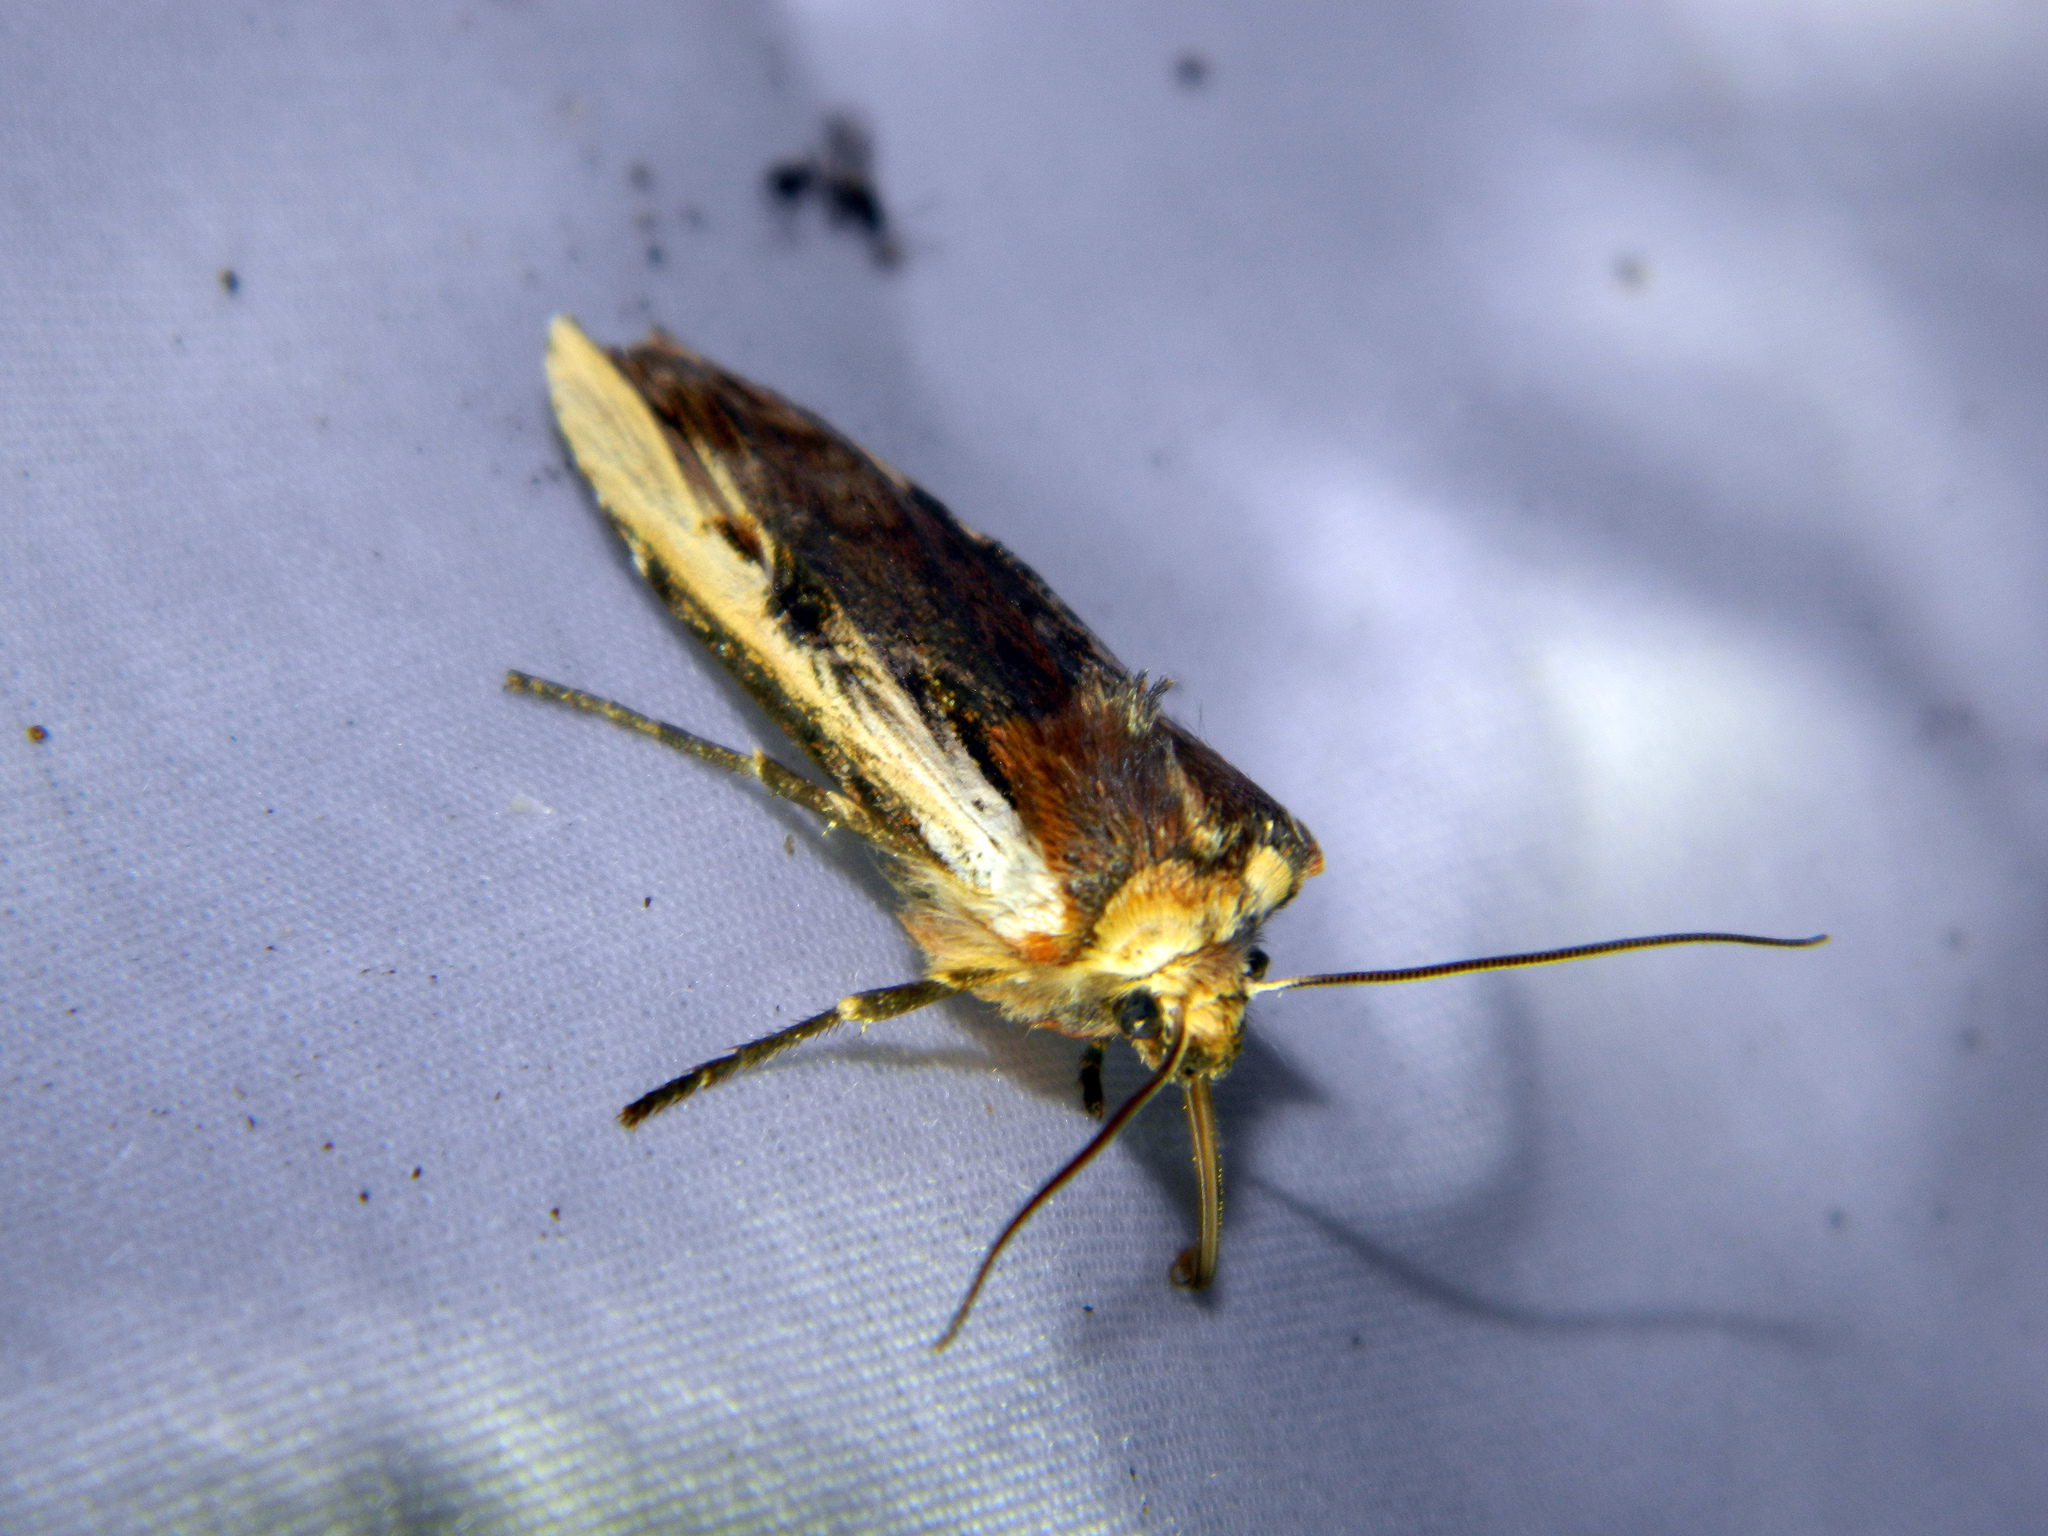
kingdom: Animalia
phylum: Arthropoda
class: Insecta
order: Lepidoptera
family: Noctuidae
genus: Xylena
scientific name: Xylena curvimacula
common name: Dot-and-dash swordgrass moth
